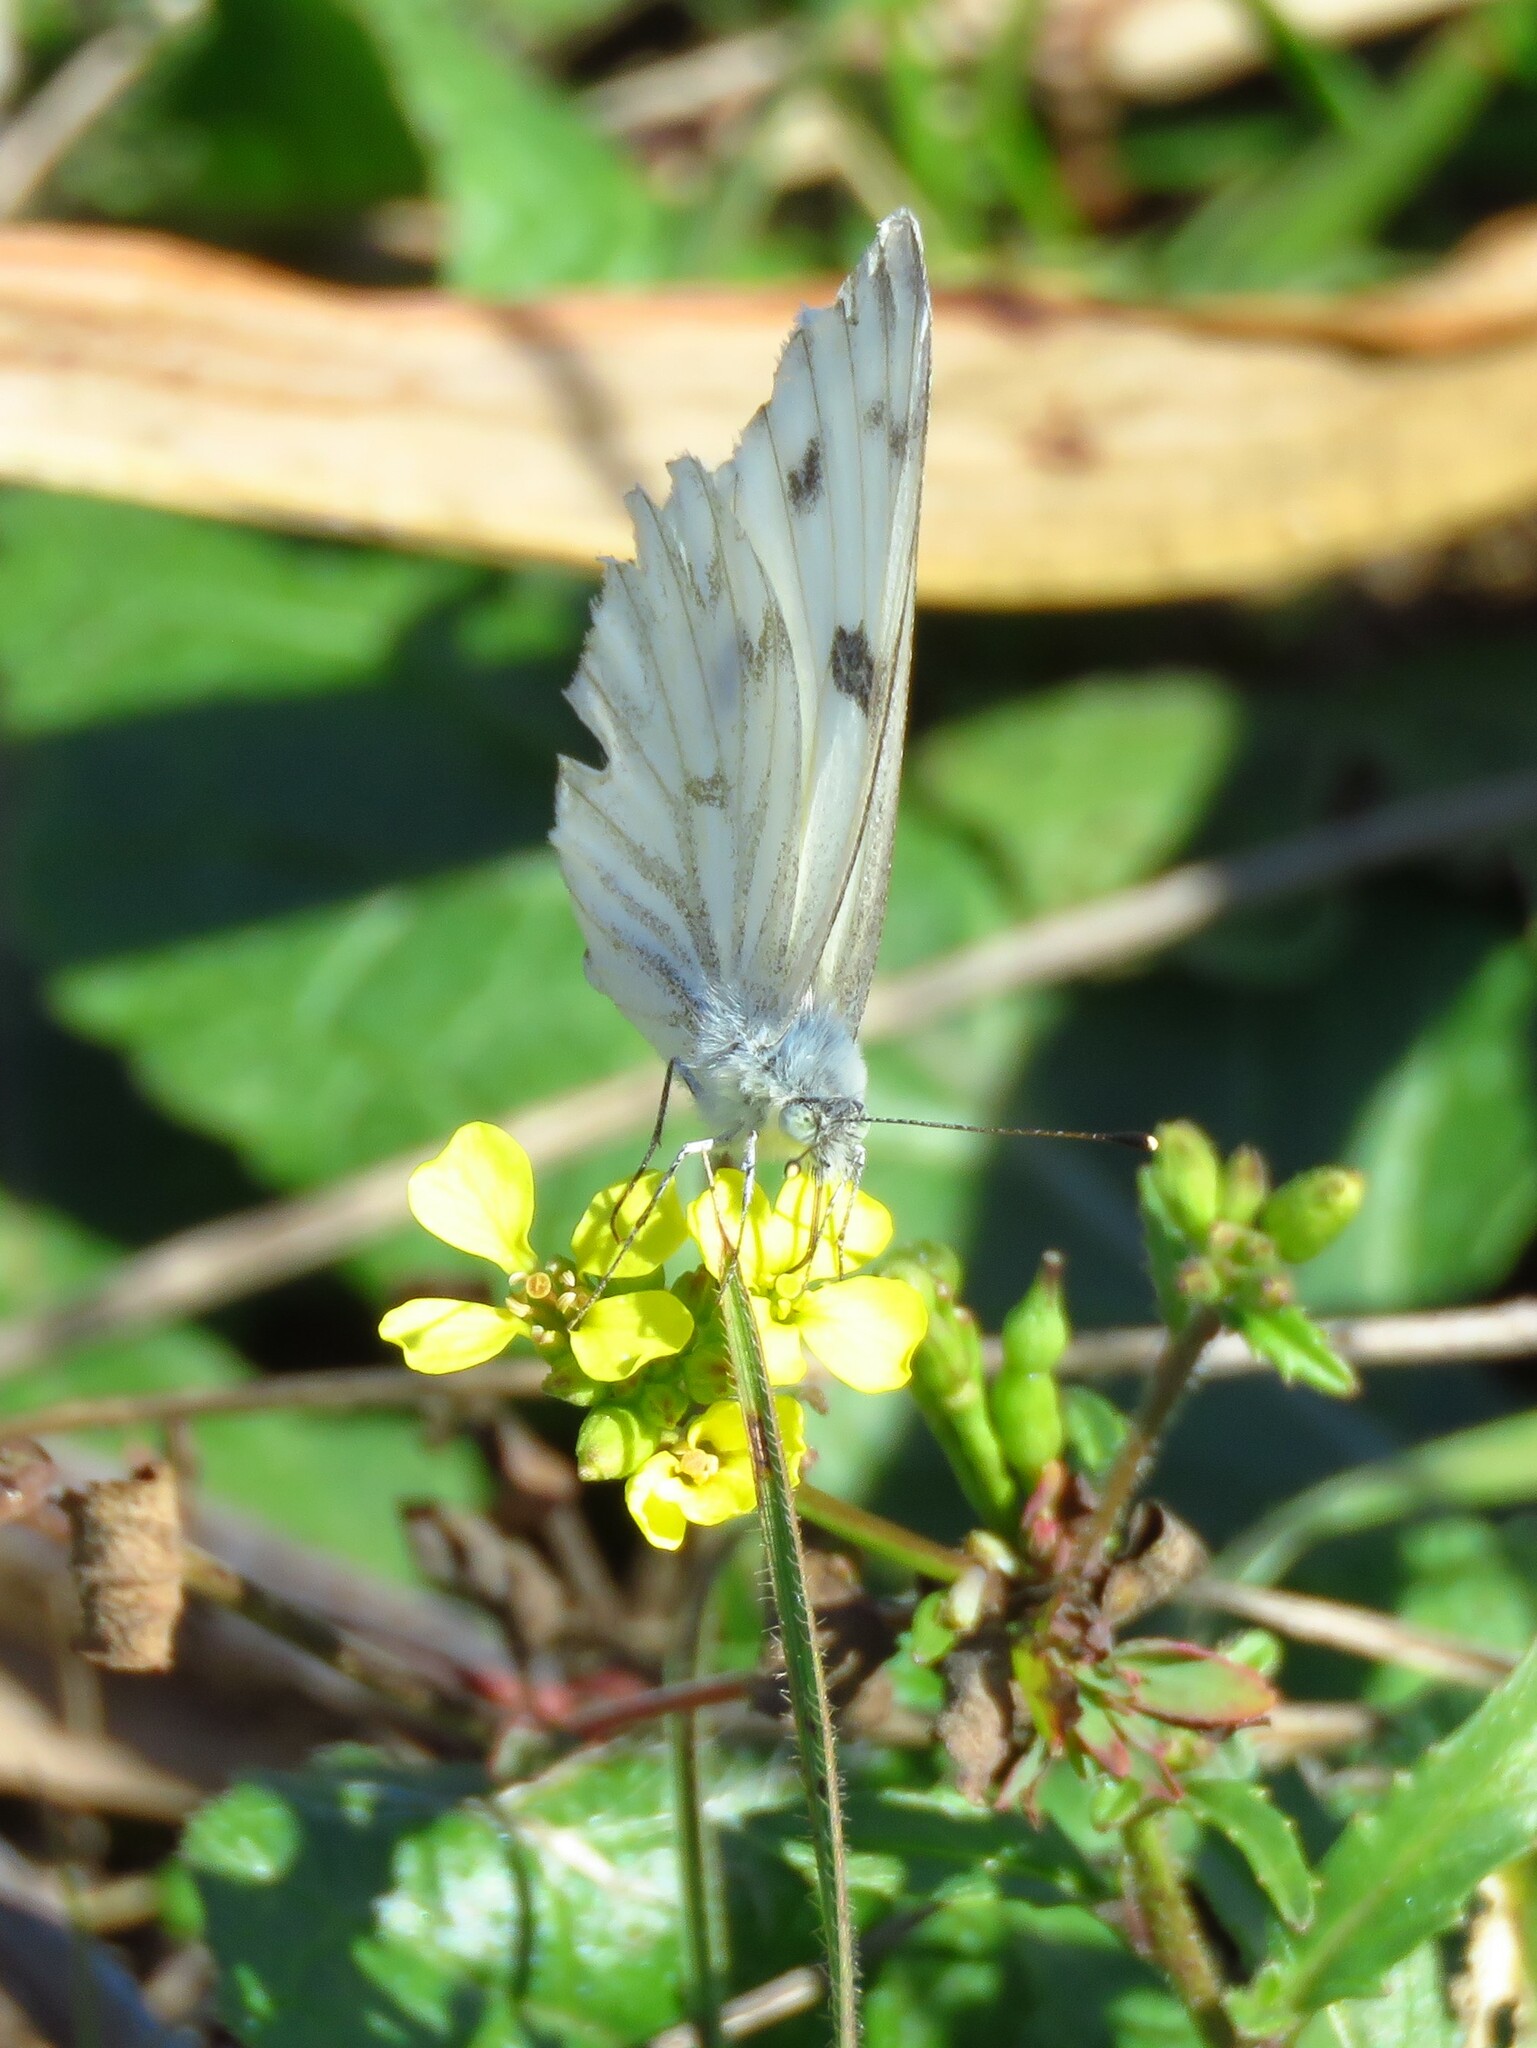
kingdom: Animalia
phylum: Arthropoda
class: Insecta
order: Lepidoptera
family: Pieridae
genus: Pontia
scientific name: Pontia protodice
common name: Checkered white
